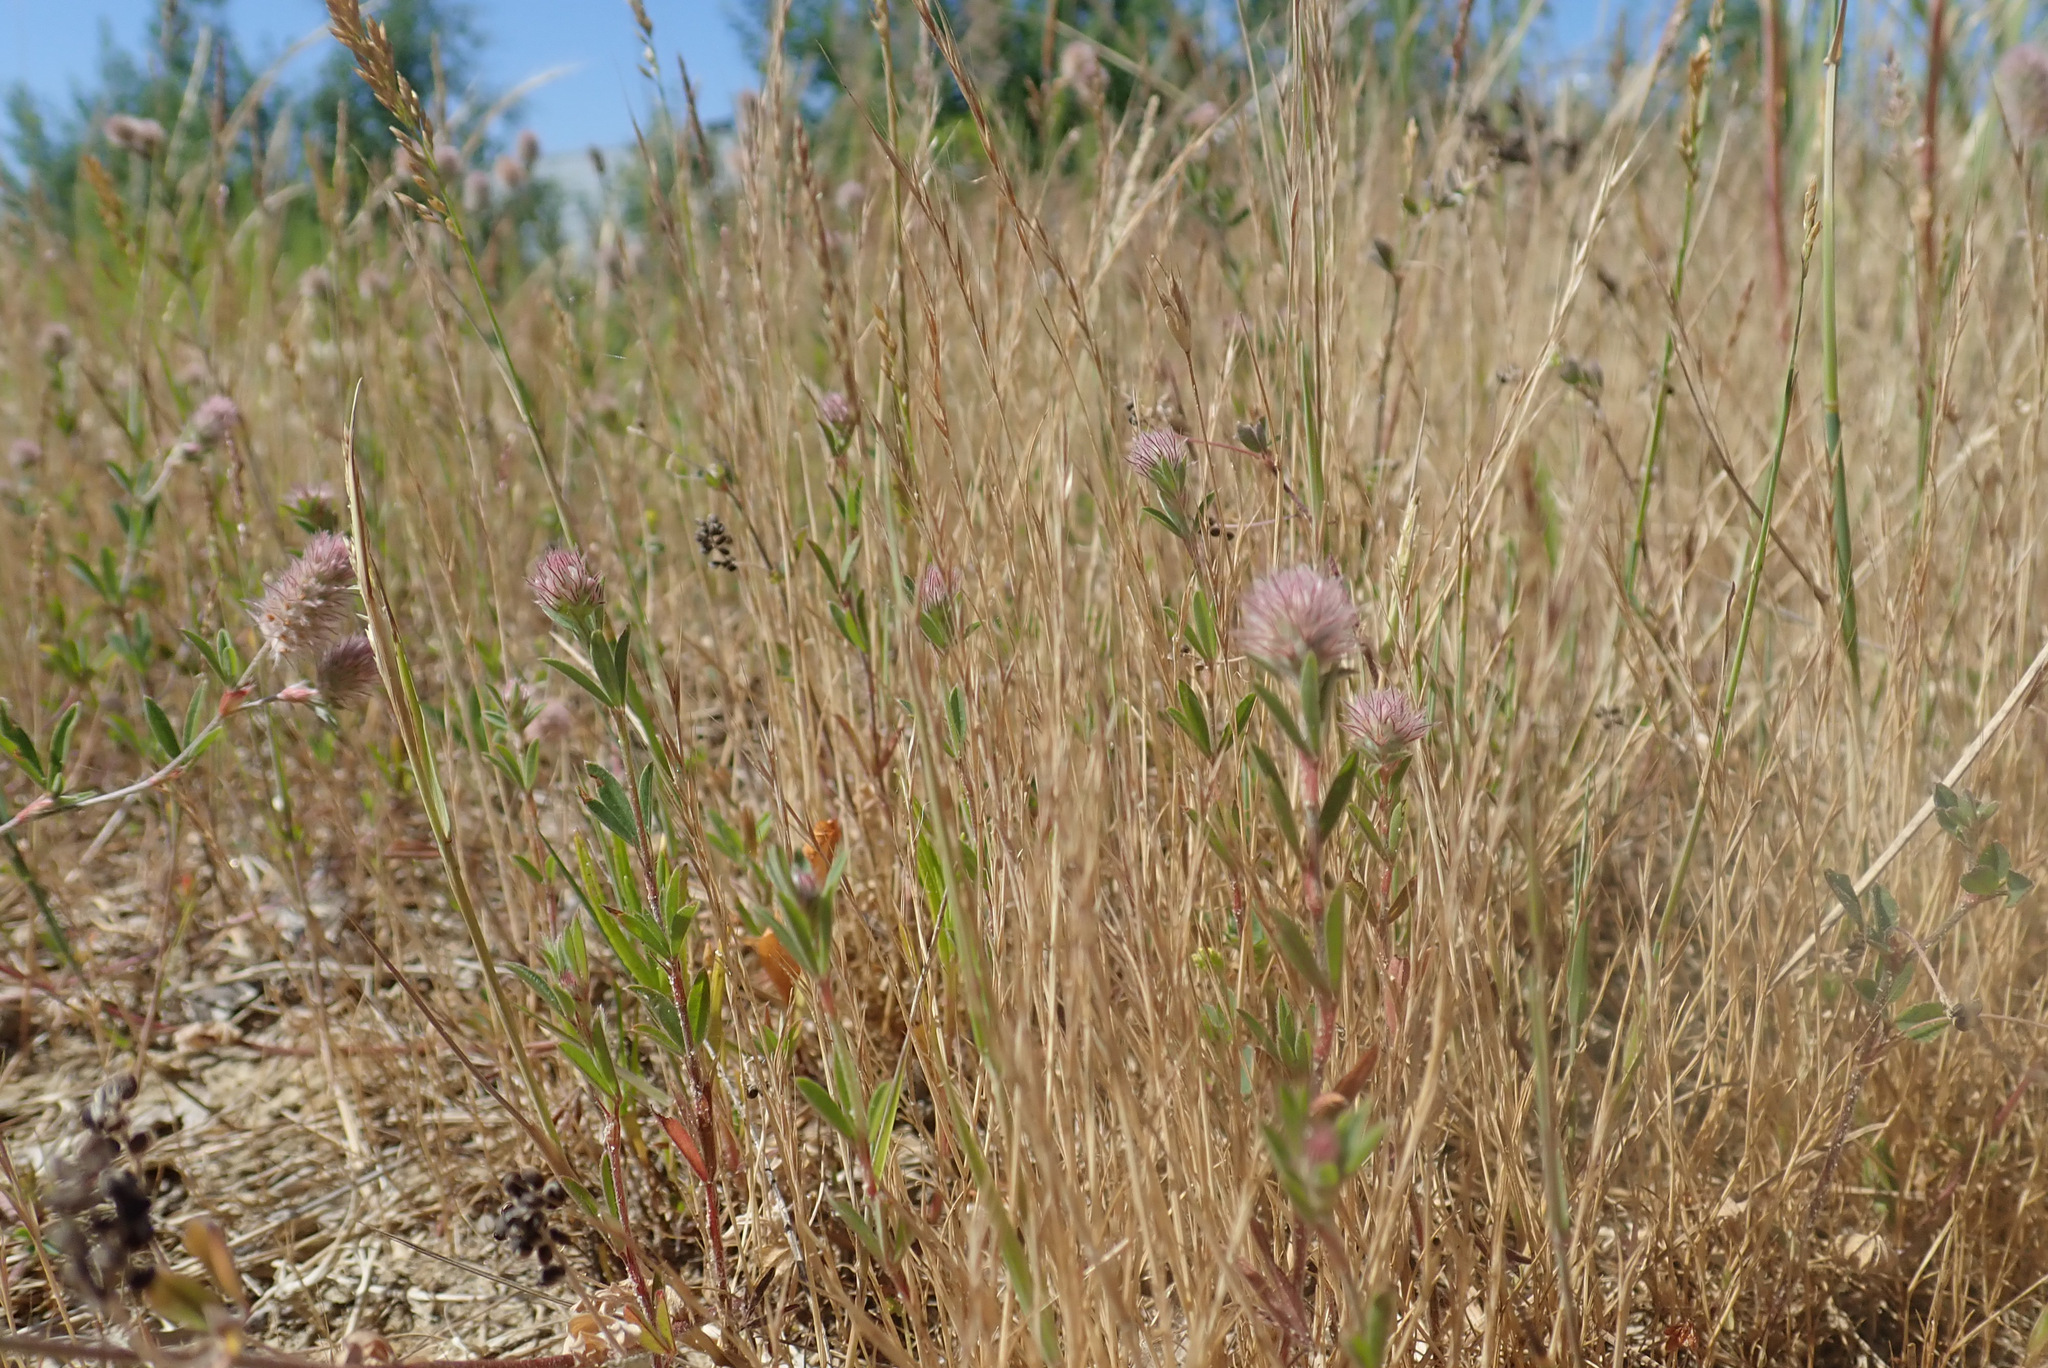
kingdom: Plantae
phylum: Tracheophyta
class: Magnoliopsida
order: Fabales
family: Fabaceae
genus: Trifolium
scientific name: Trifolium arvense
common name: Hare's-foot clover
